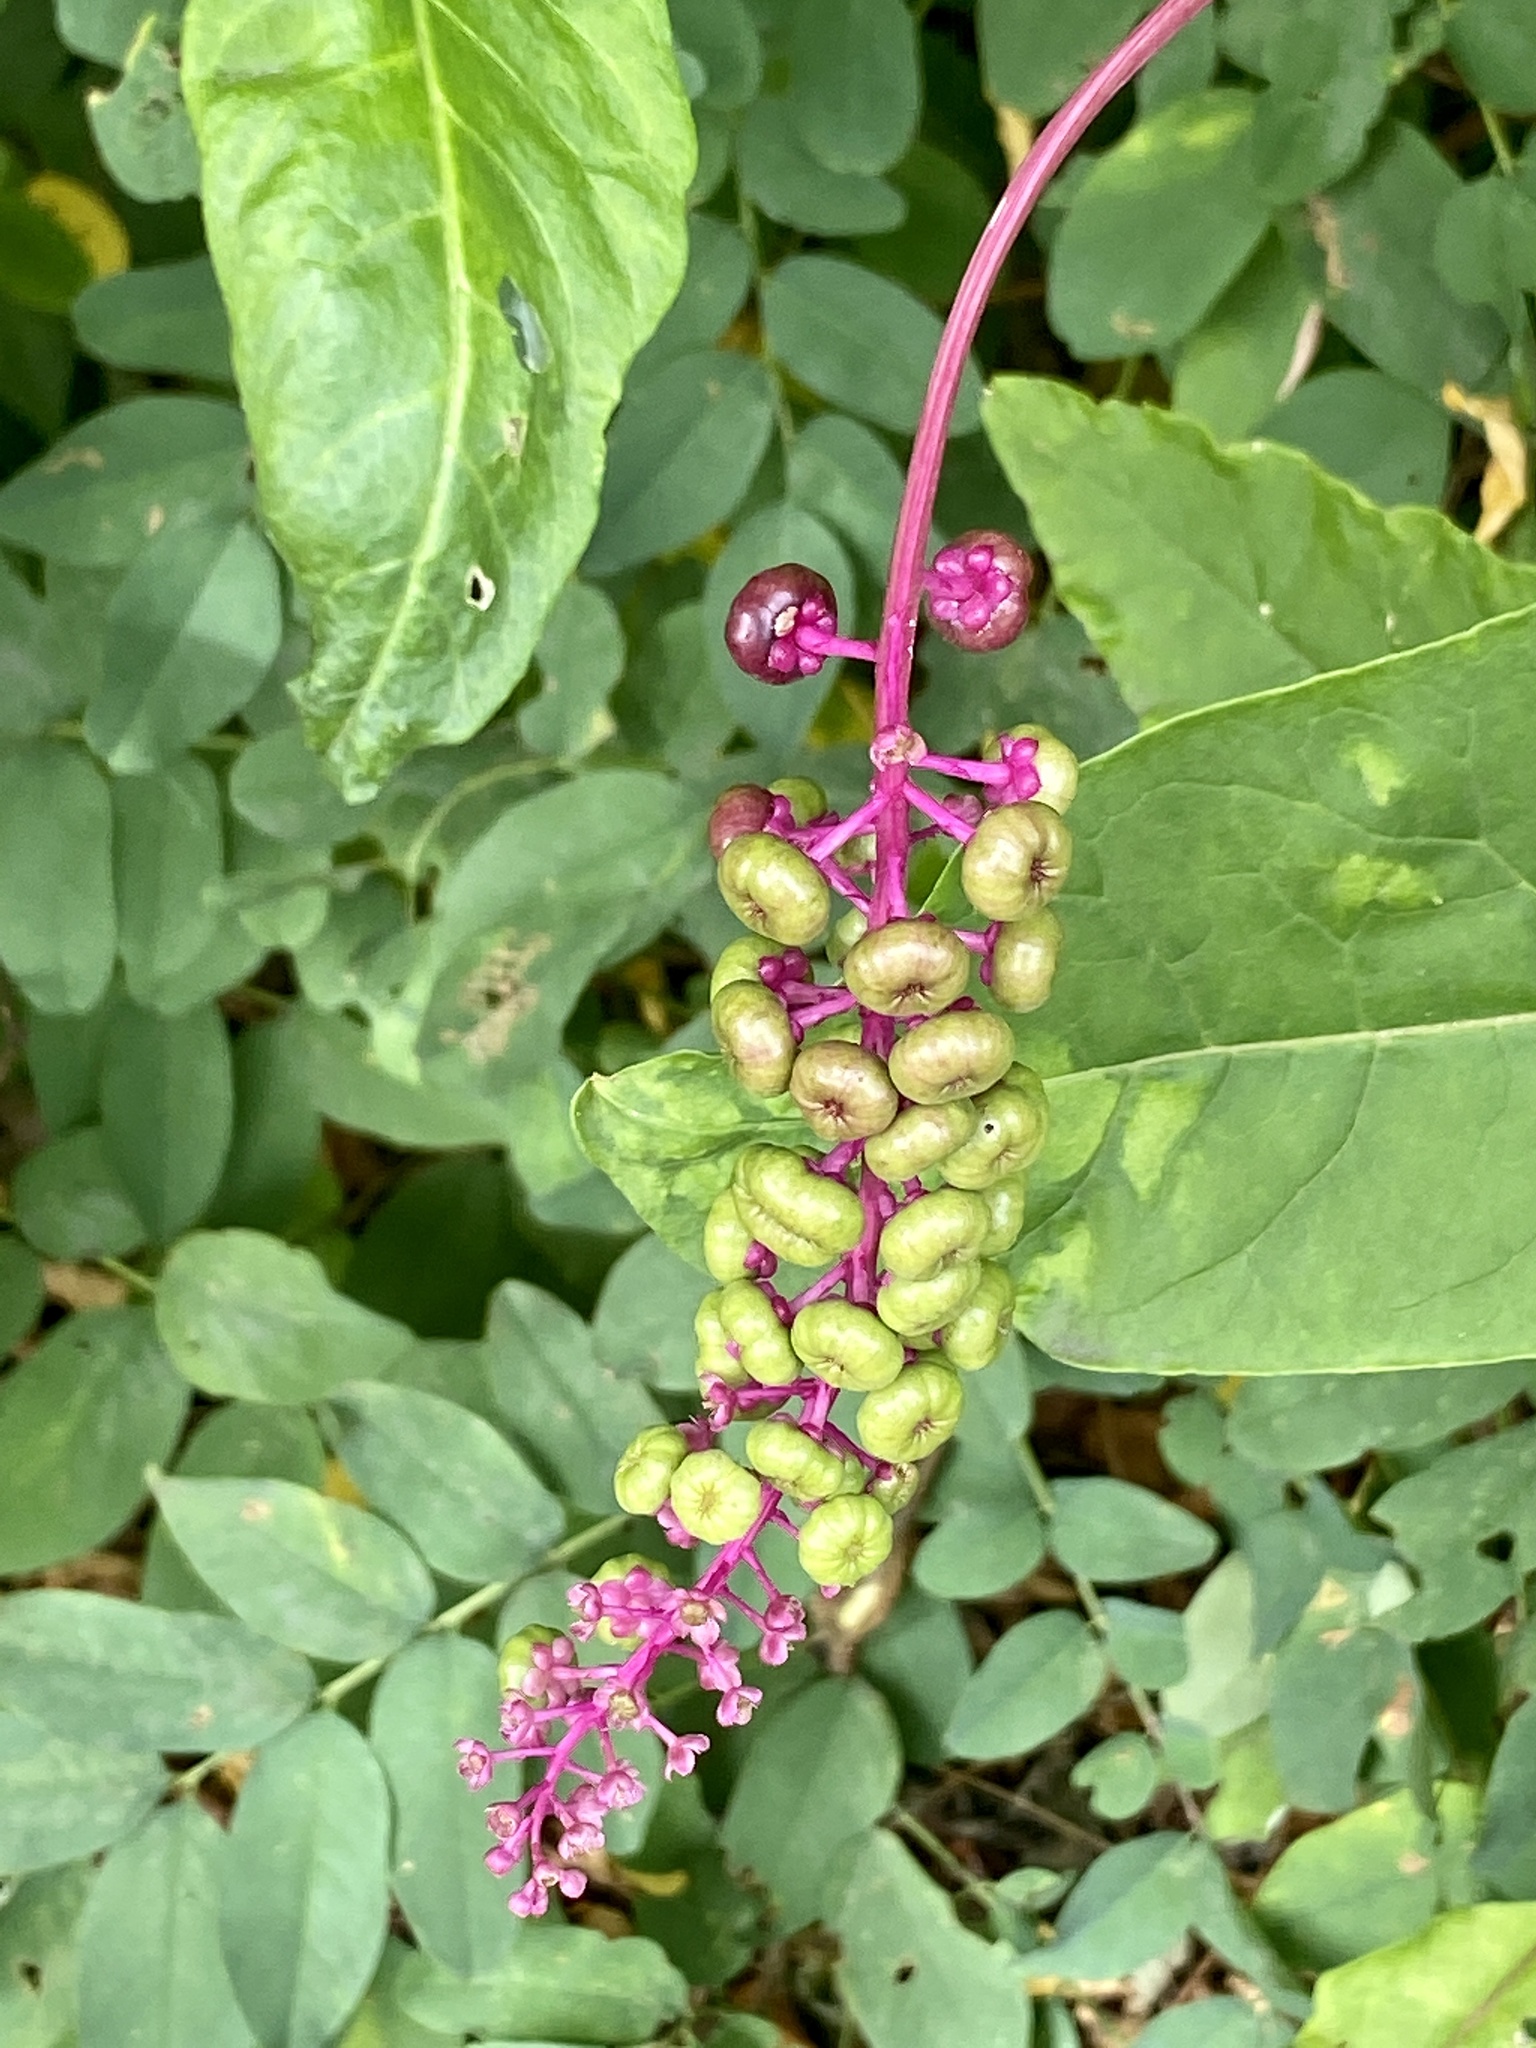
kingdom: Plantae
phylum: Tracheophyta
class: Magnoliopsida
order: Caryophyllales
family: Phytolaccaceae
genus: Phytolacca
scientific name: Phytolacca americana
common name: American pokeweed
